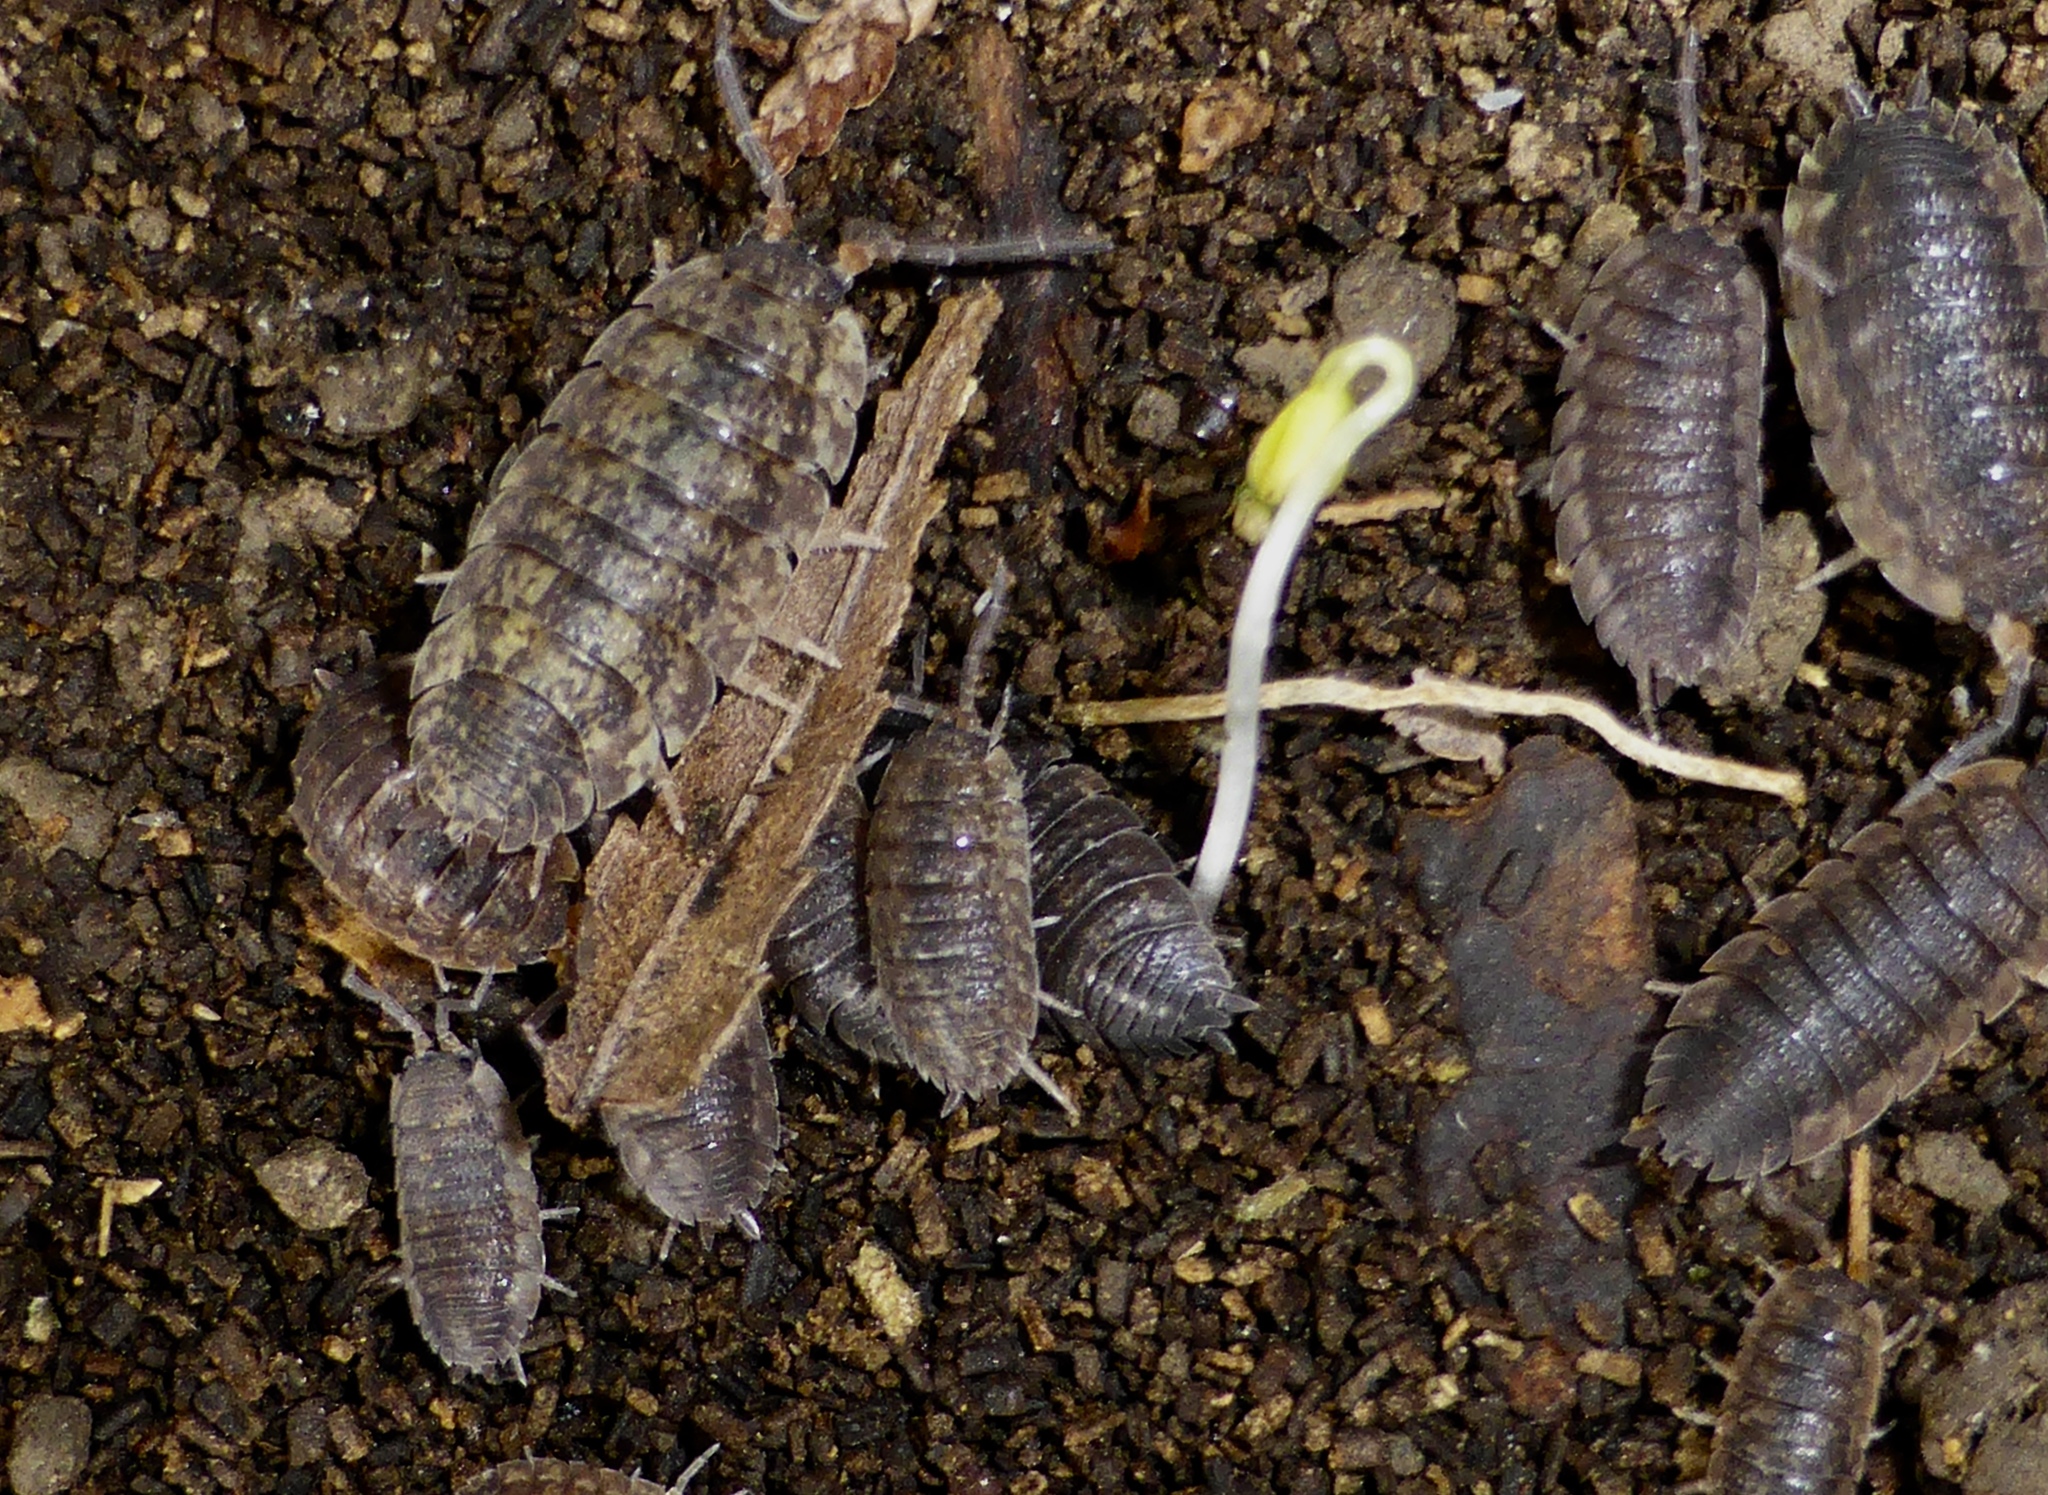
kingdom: Animalia
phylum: Arthropoda
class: Malacostraca
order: Isopoda
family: Porcellionidae
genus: Porcellio
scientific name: Porcellio scaber
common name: Common rough woodlouse
